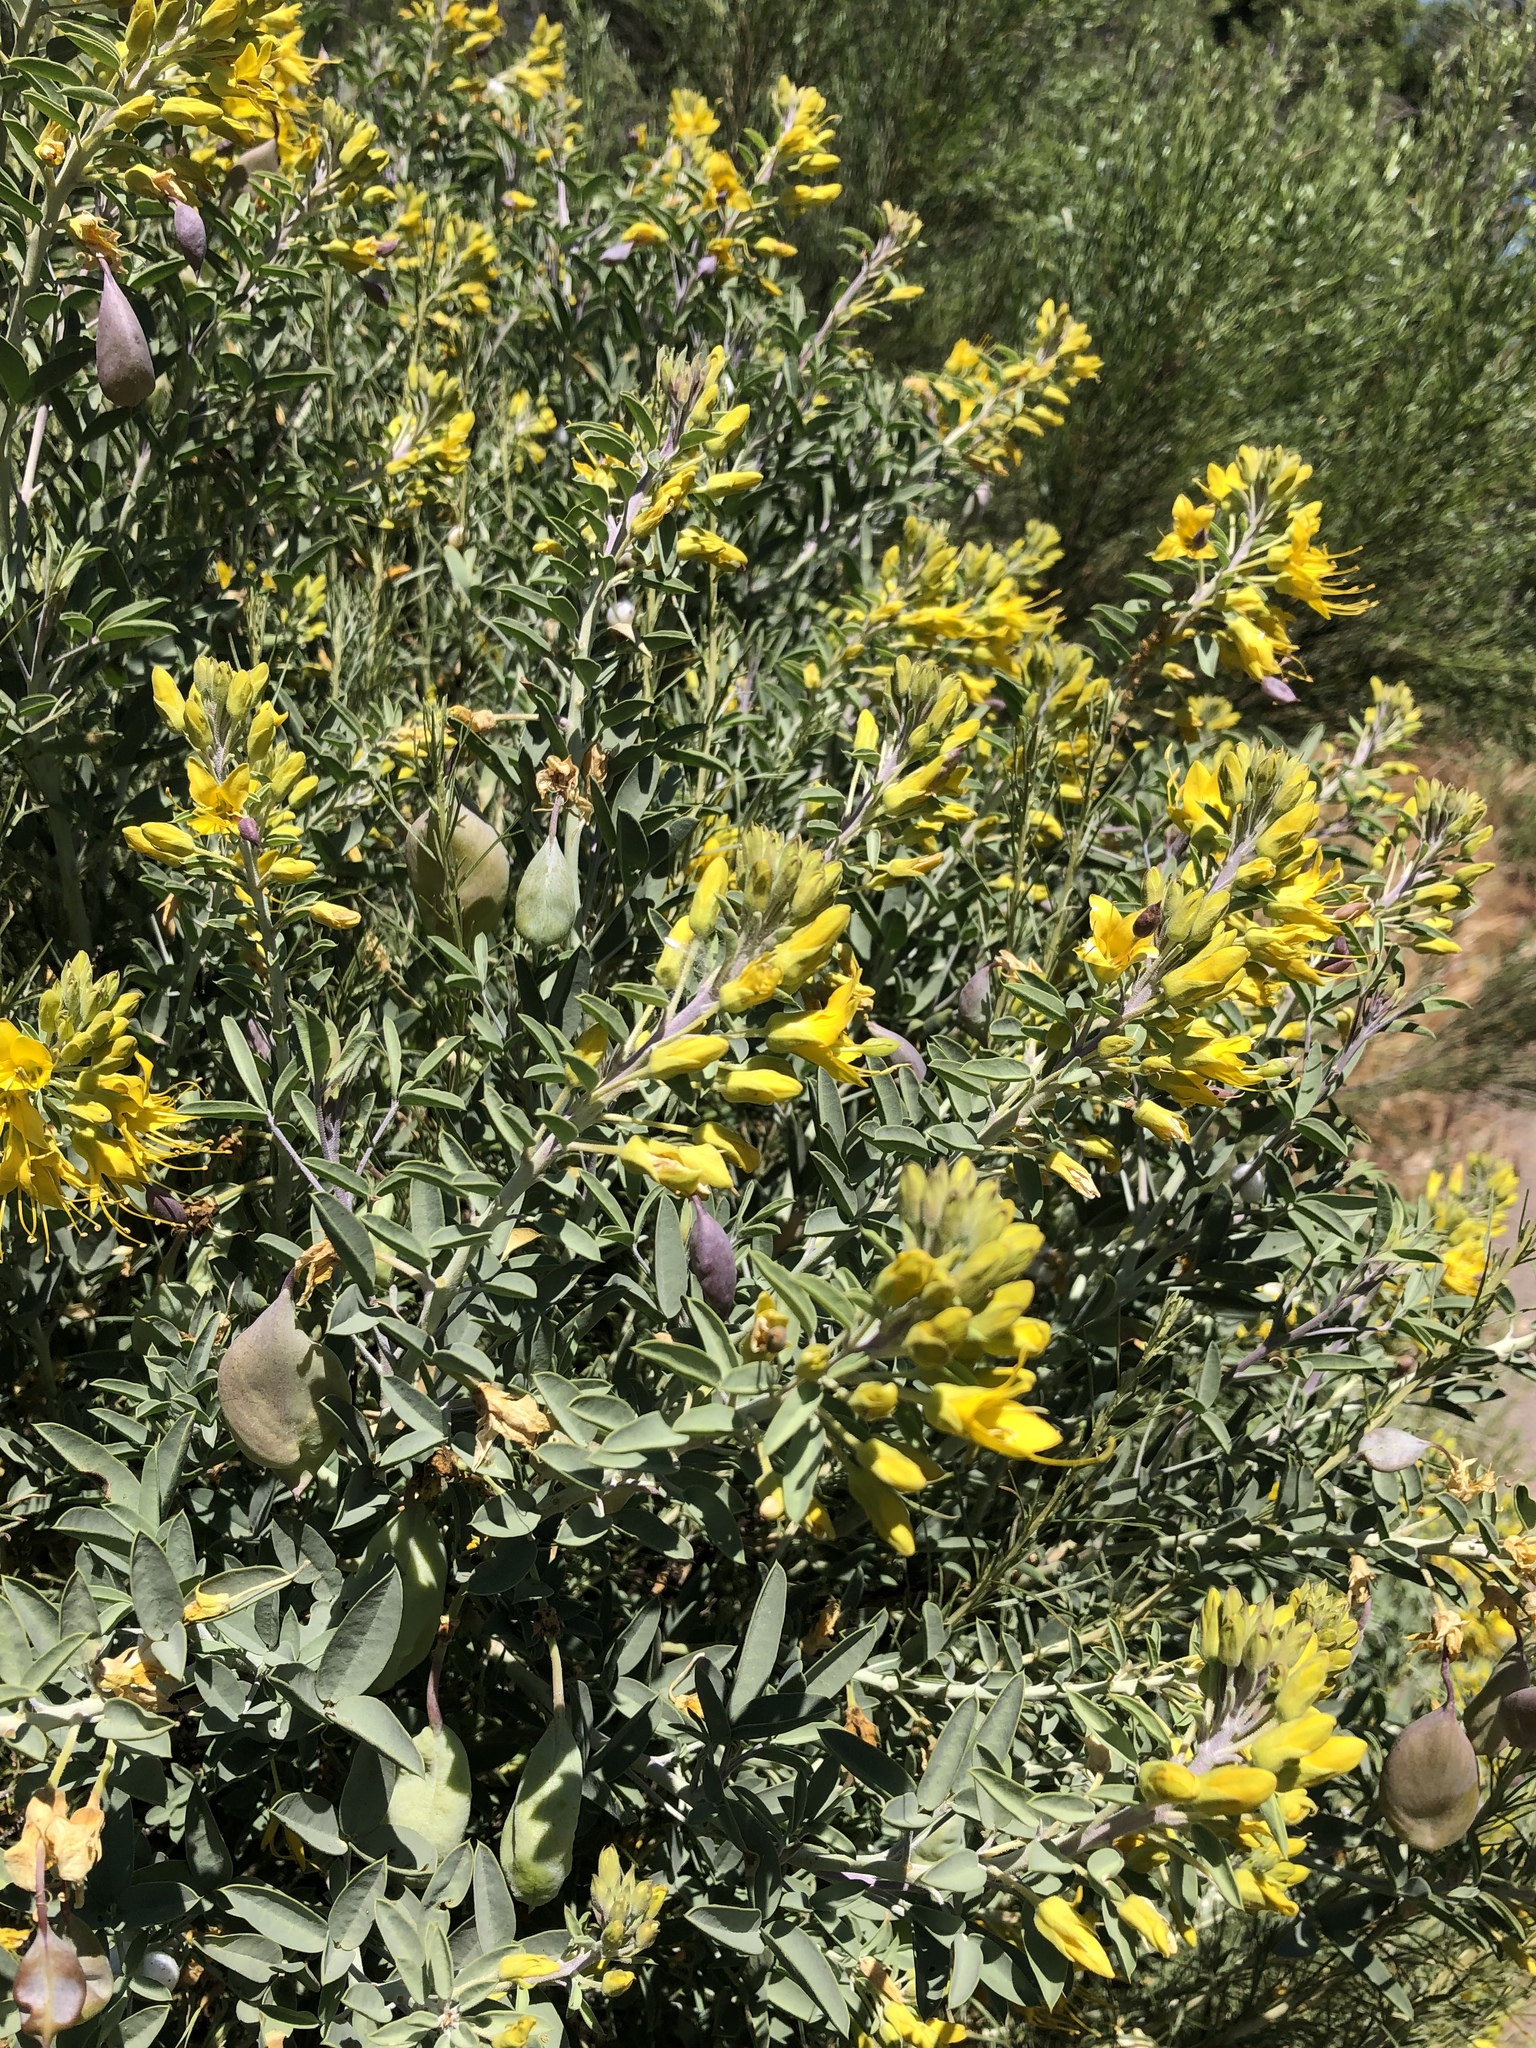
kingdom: Plantae
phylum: Tracheophyta
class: Magnoliopsida
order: Brassicales
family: Cleomaceae
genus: Cleomella
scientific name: Cleomella arborea
